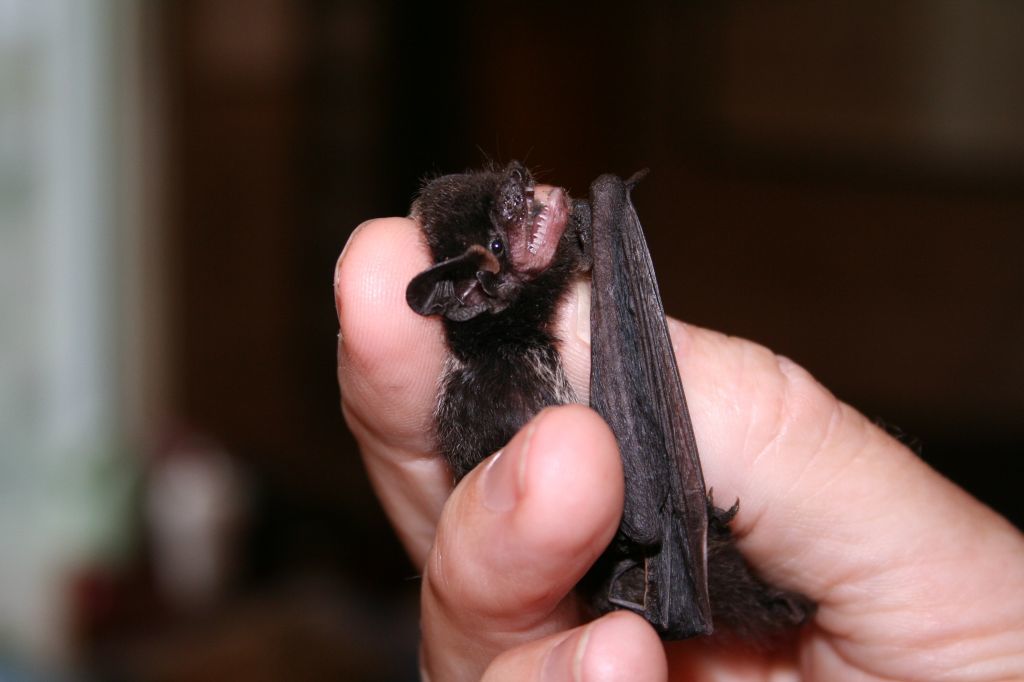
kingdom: Animalia
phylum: Chordata
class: Mammalia
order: Chiroptera
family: Vespertilionidae
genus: Lasionycteris
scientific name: Lasionycteris noctivagans
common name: Silver-haired bat
